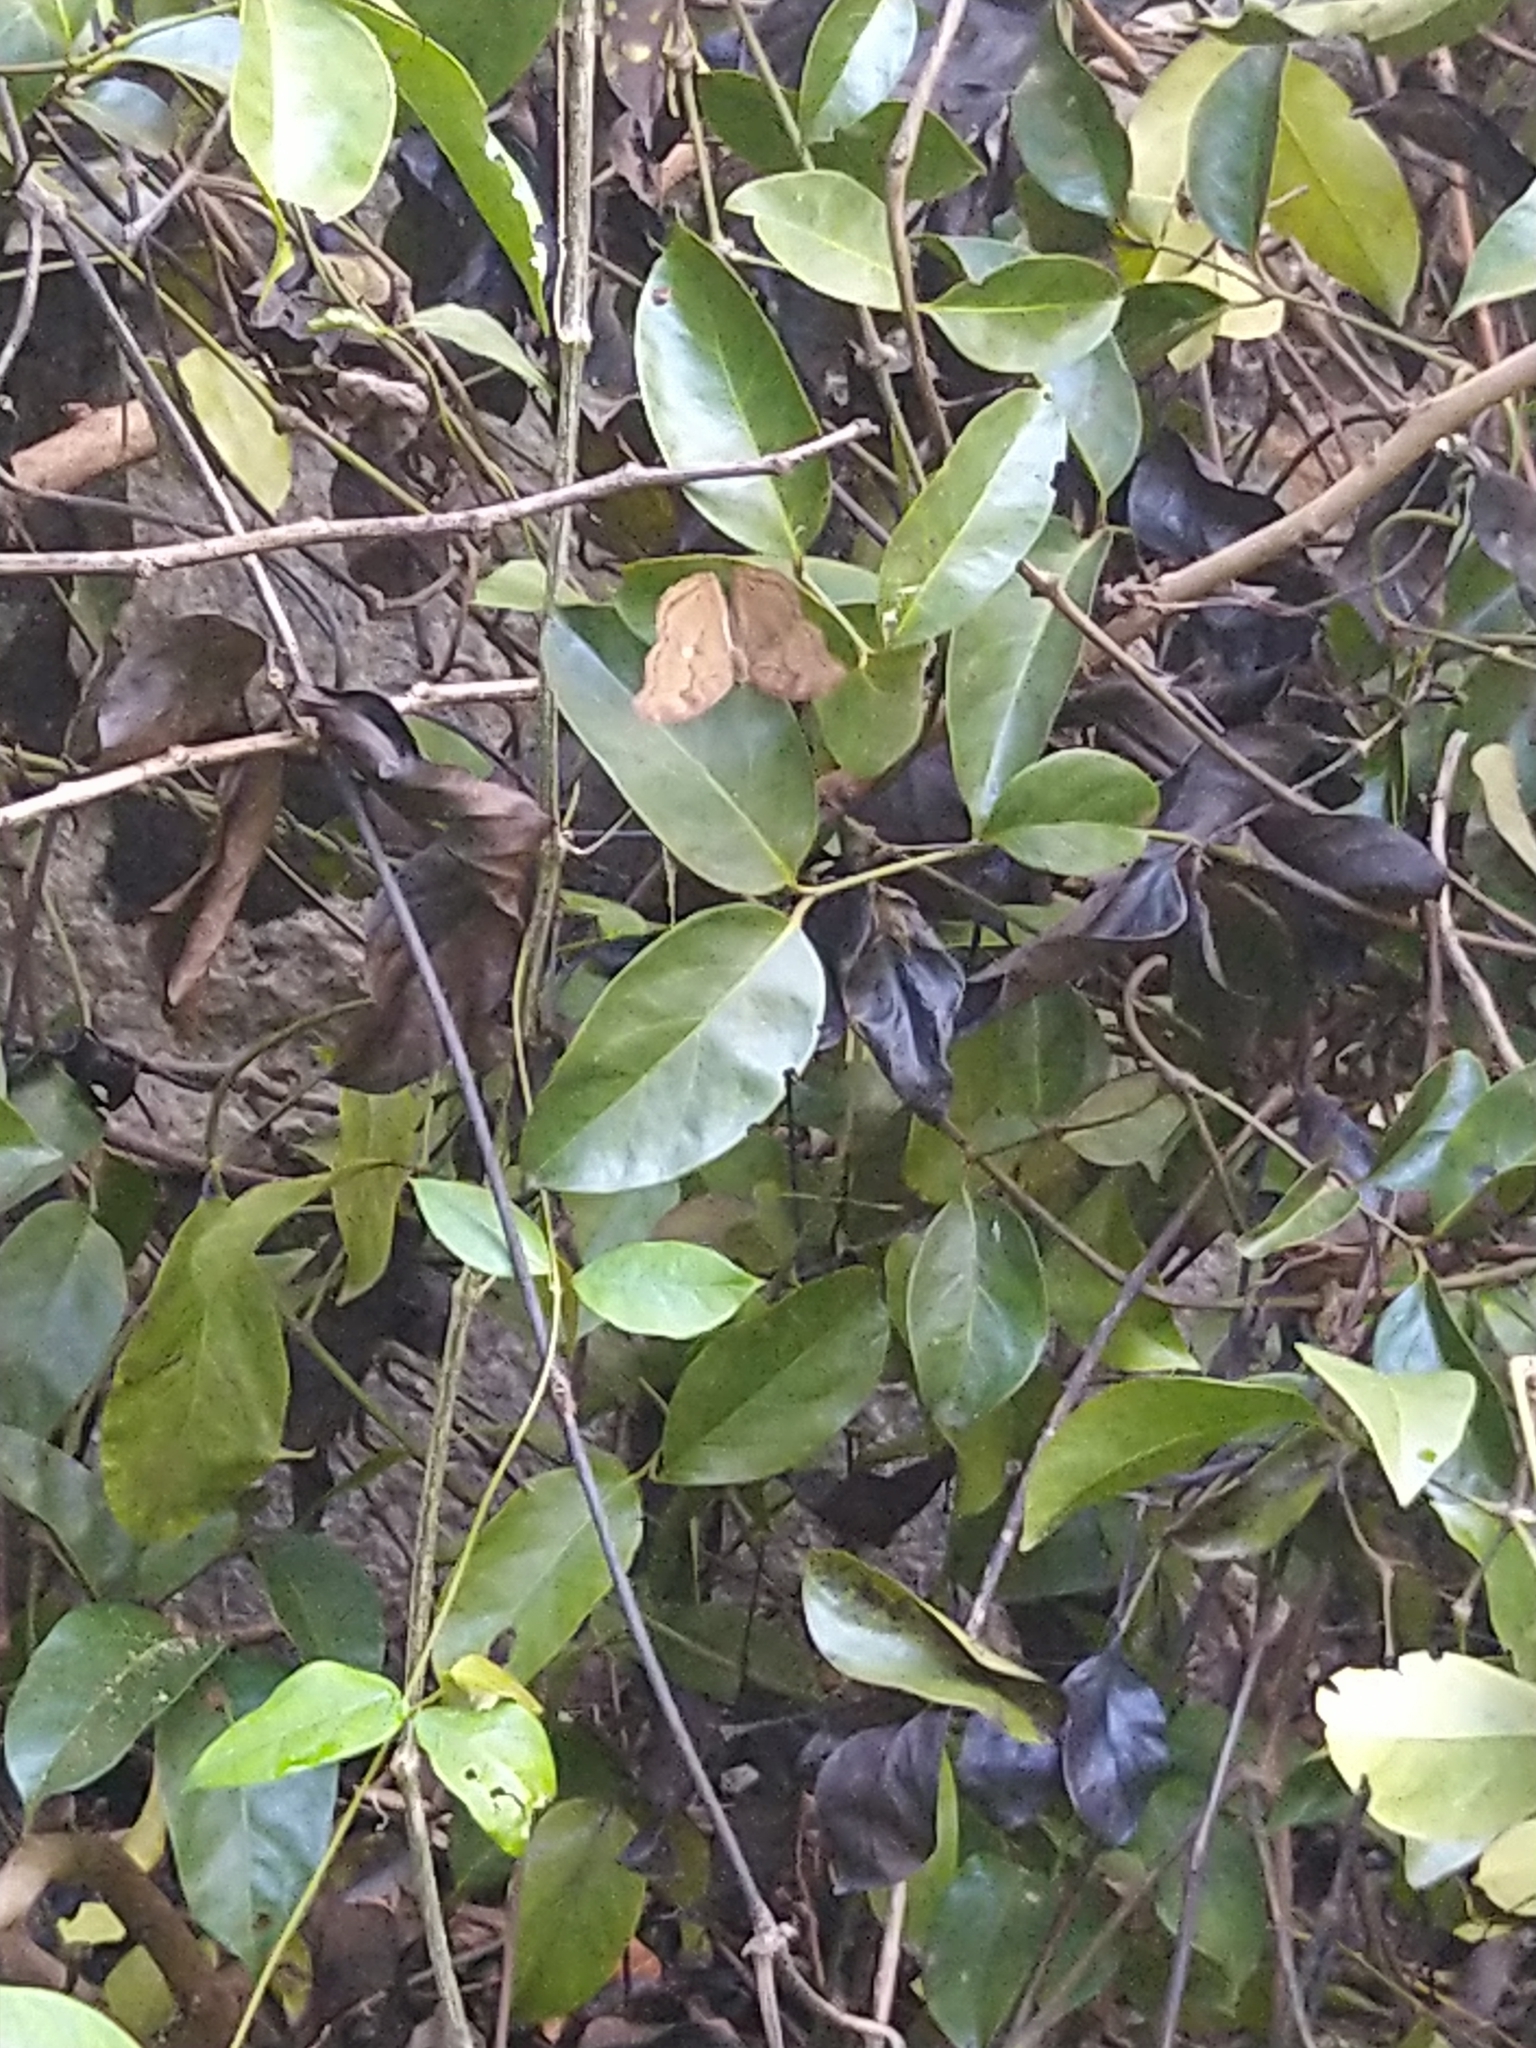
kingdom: Animalia
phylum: Arthropoda
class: Insecta
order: Lepidoptera
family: Nymphalidae
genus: Junonia
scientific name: Junonia iphita
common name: Chocolate pansy
